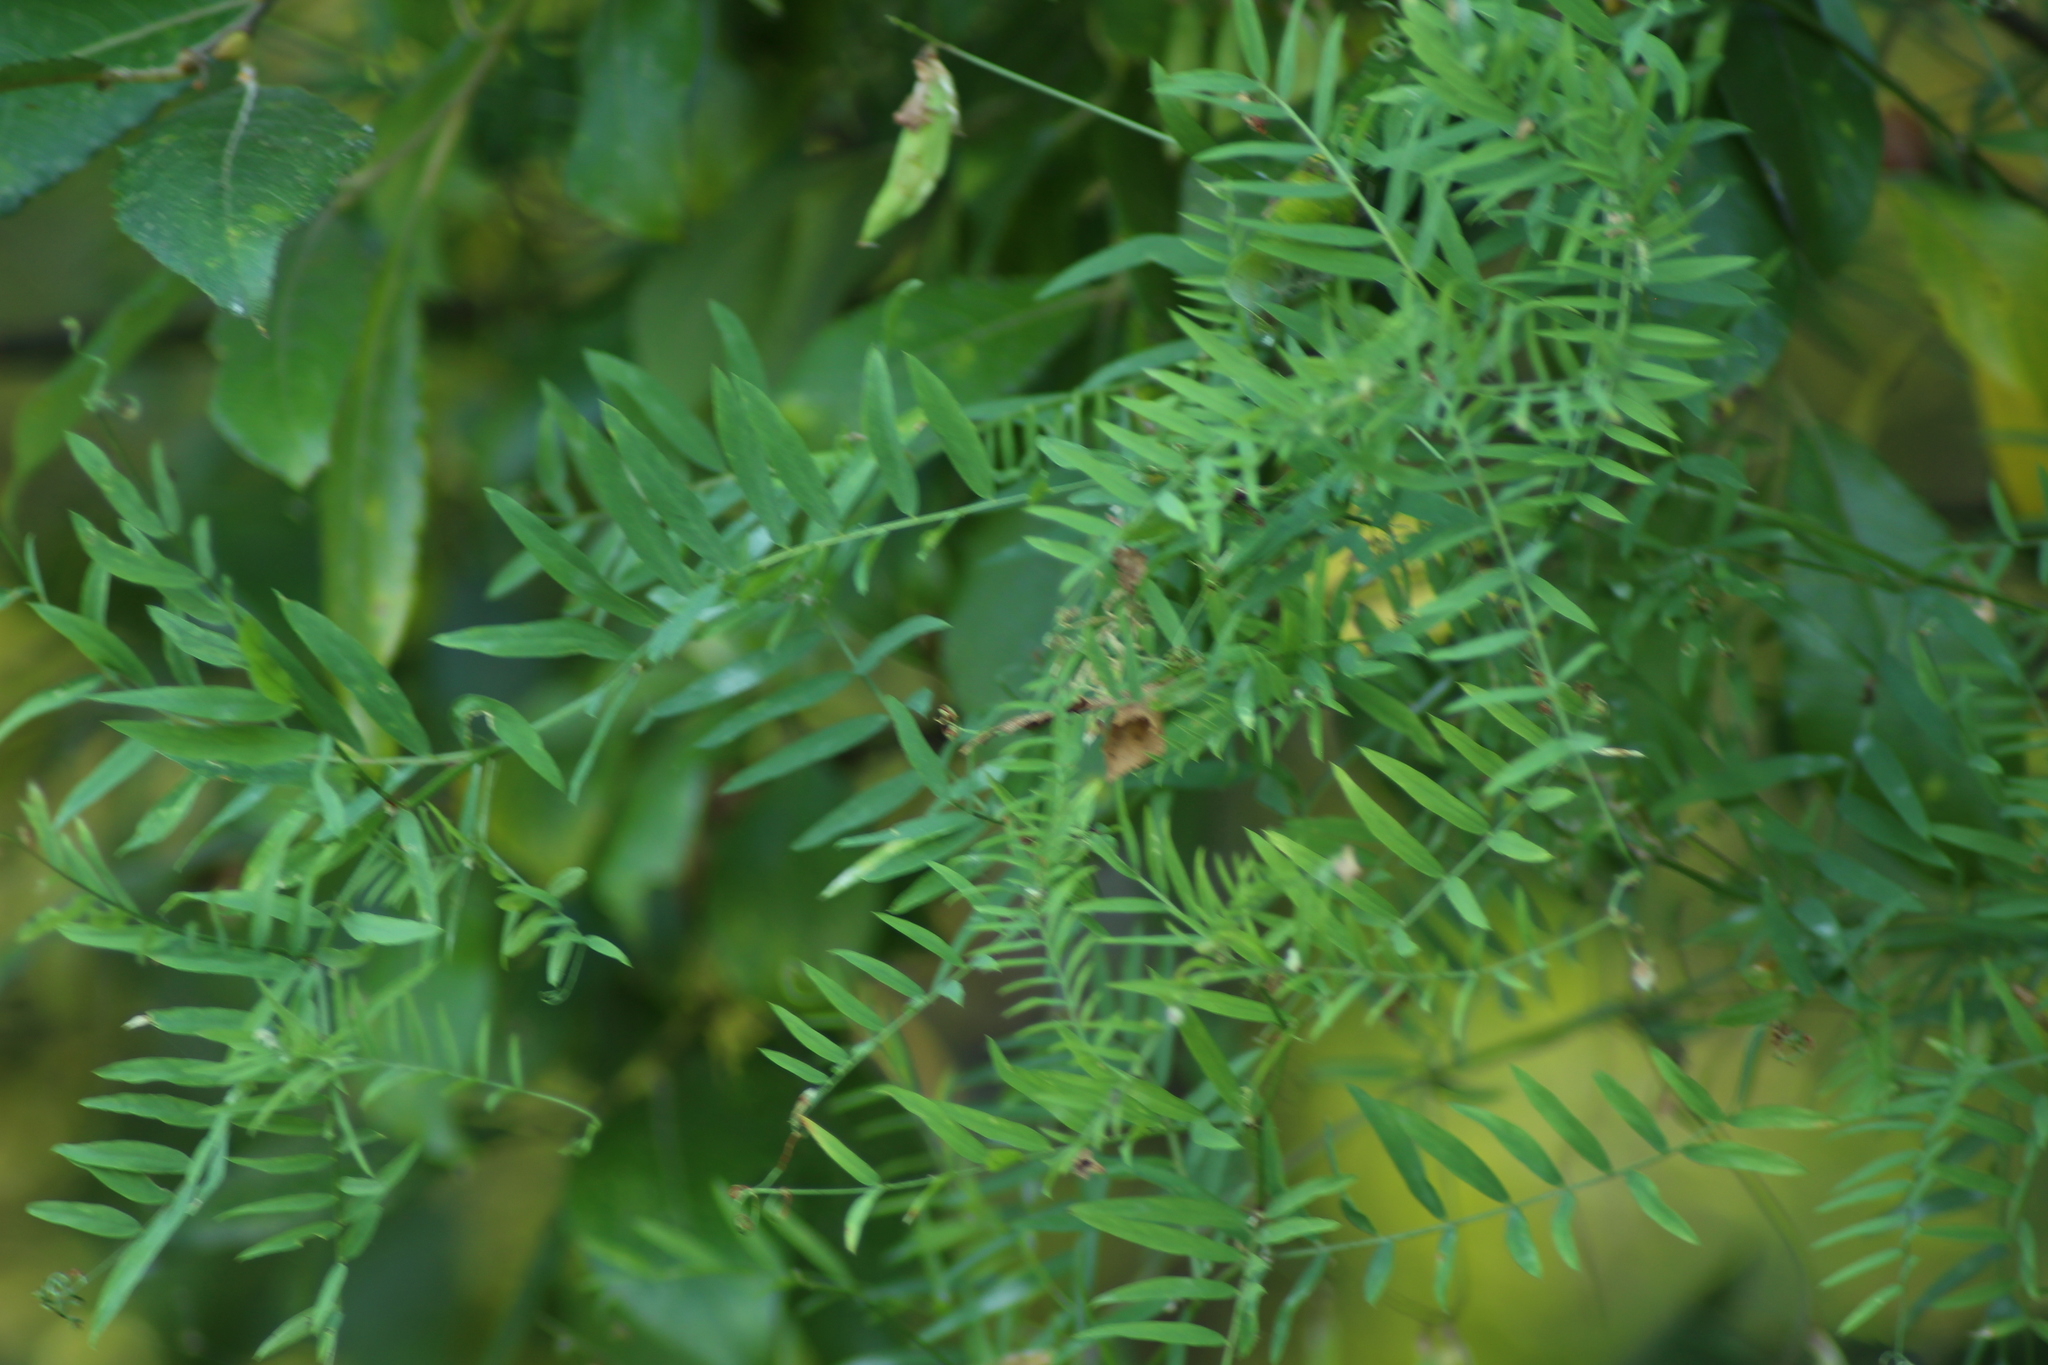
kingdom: Plantae
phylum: Tracheophyta
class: Magnoliopsida
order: Fabales
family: Fabaceae
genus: Vicia
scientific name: Vicia cracca
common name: Bird vetch
